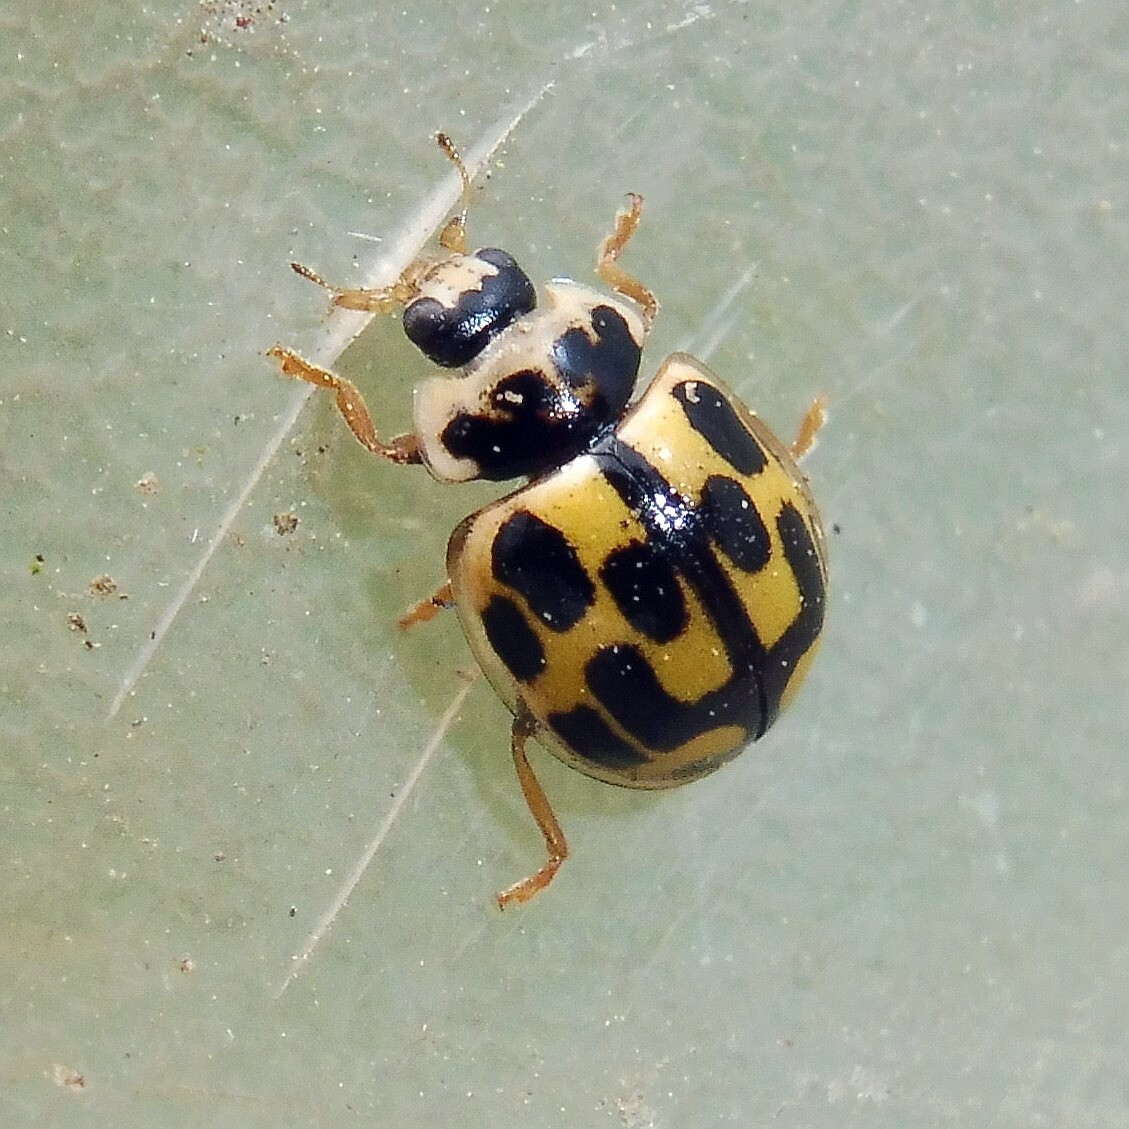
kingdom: Animalia
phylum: Arthropoda
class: Insecta
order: Coleoptera
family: Coccinellidae
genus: Propylaea
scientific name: Propylaea quatuordecimpunctata
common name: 14-spotted ladybird beetle
